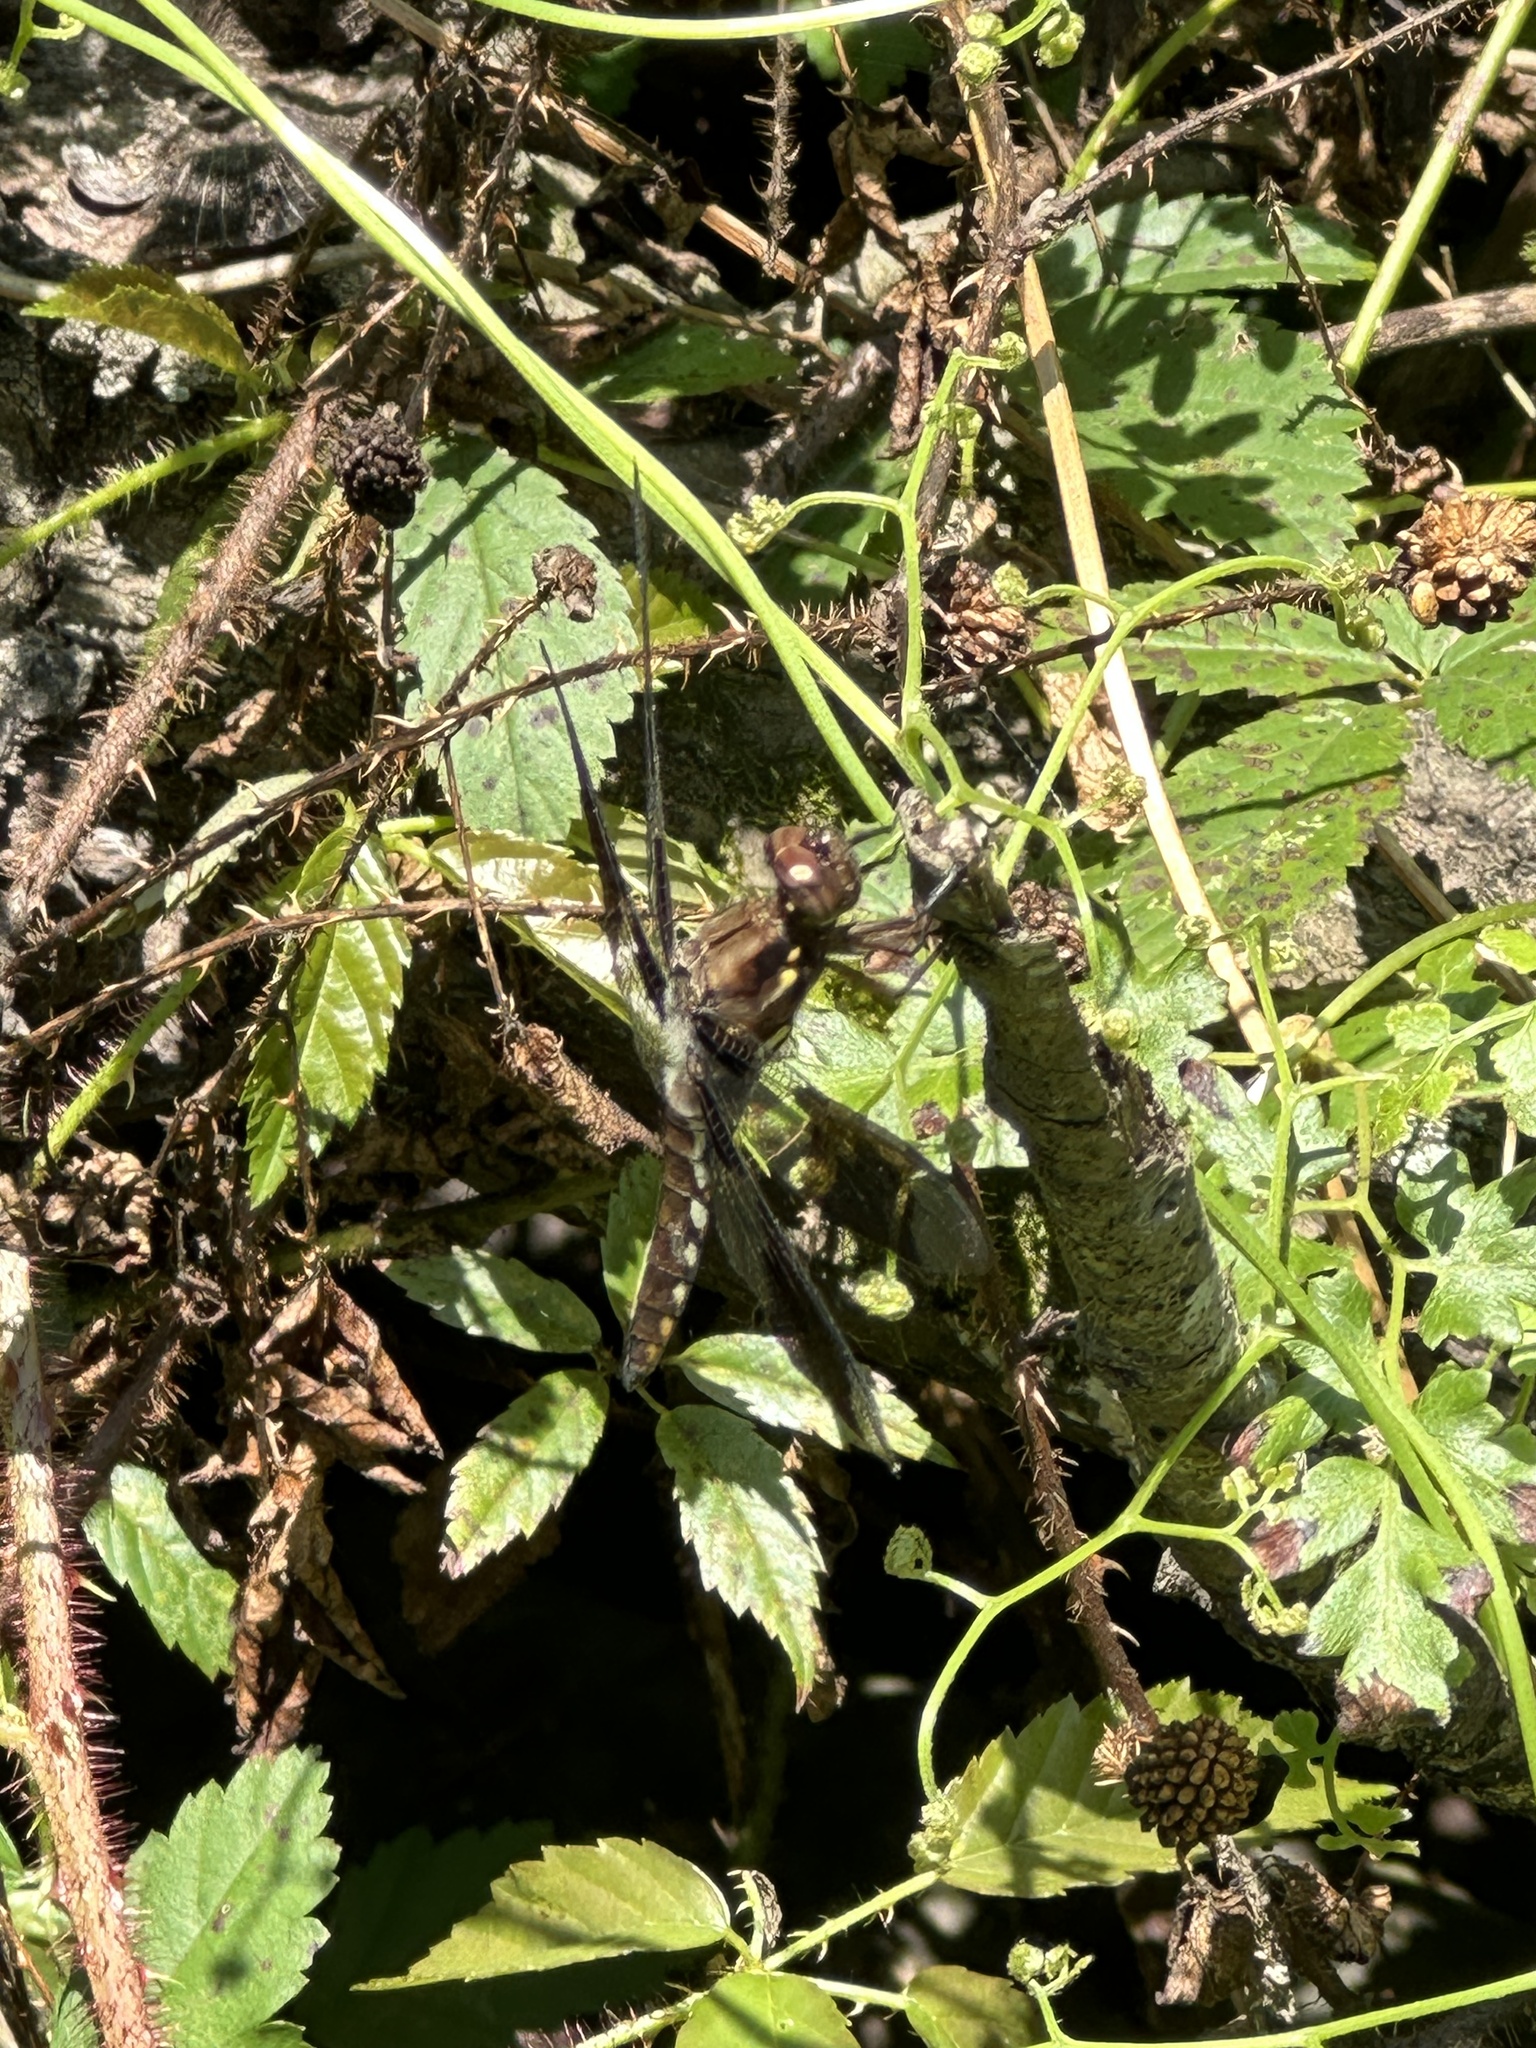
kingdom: Animalia
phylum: Arthropoda
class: Insecta
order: Odonata
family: Libellulidae
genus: Plathemis
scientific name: Plathemis lydia
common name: Common whitetail
